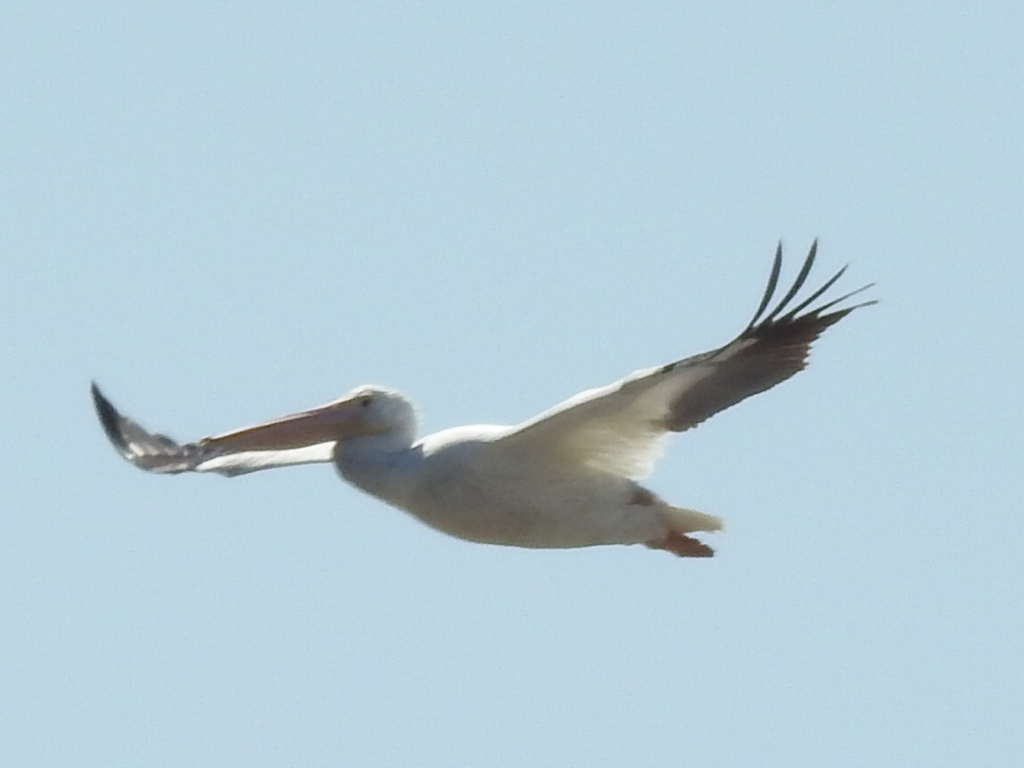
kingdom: Animalia
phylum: Chordata
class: Aves
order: Pelecaniformes
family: Pelecanidae
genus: Pelecanus
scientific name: Pelecanus erythrorhynchos
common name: American white pelican
